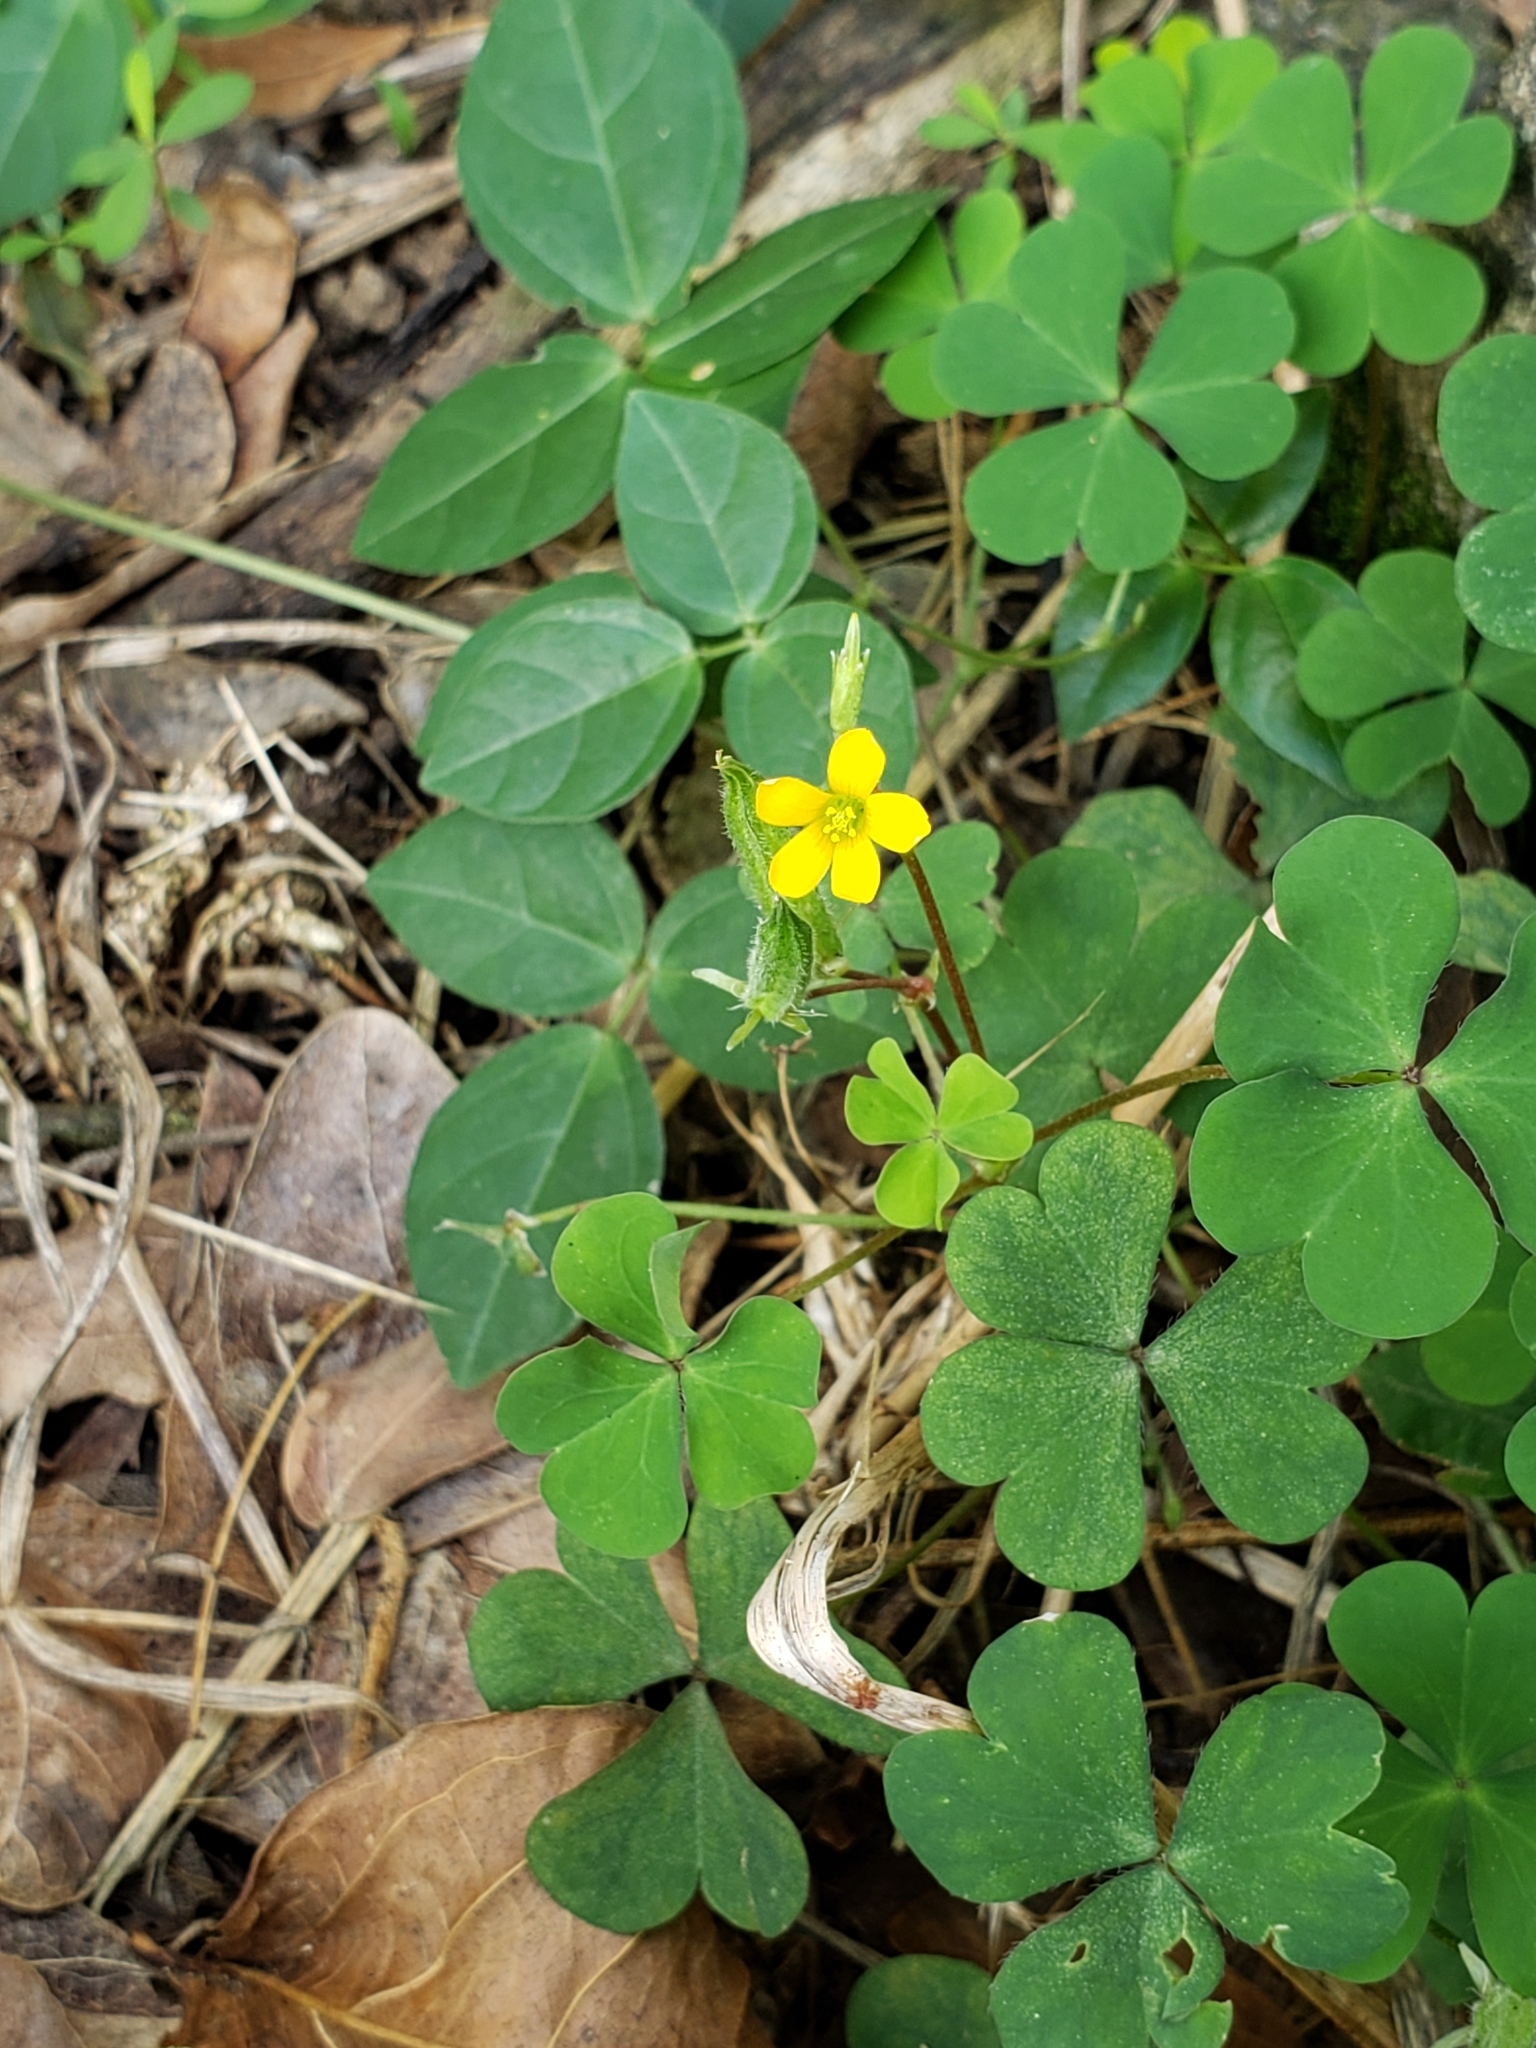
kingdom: Plantae
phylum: Tracheophyta
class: Magnoliopsida
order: Oxalidales
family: Oxalidaceae
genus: Oxalis
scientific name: Oxalis corniculata
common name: Procumbent yellow-sorrel
